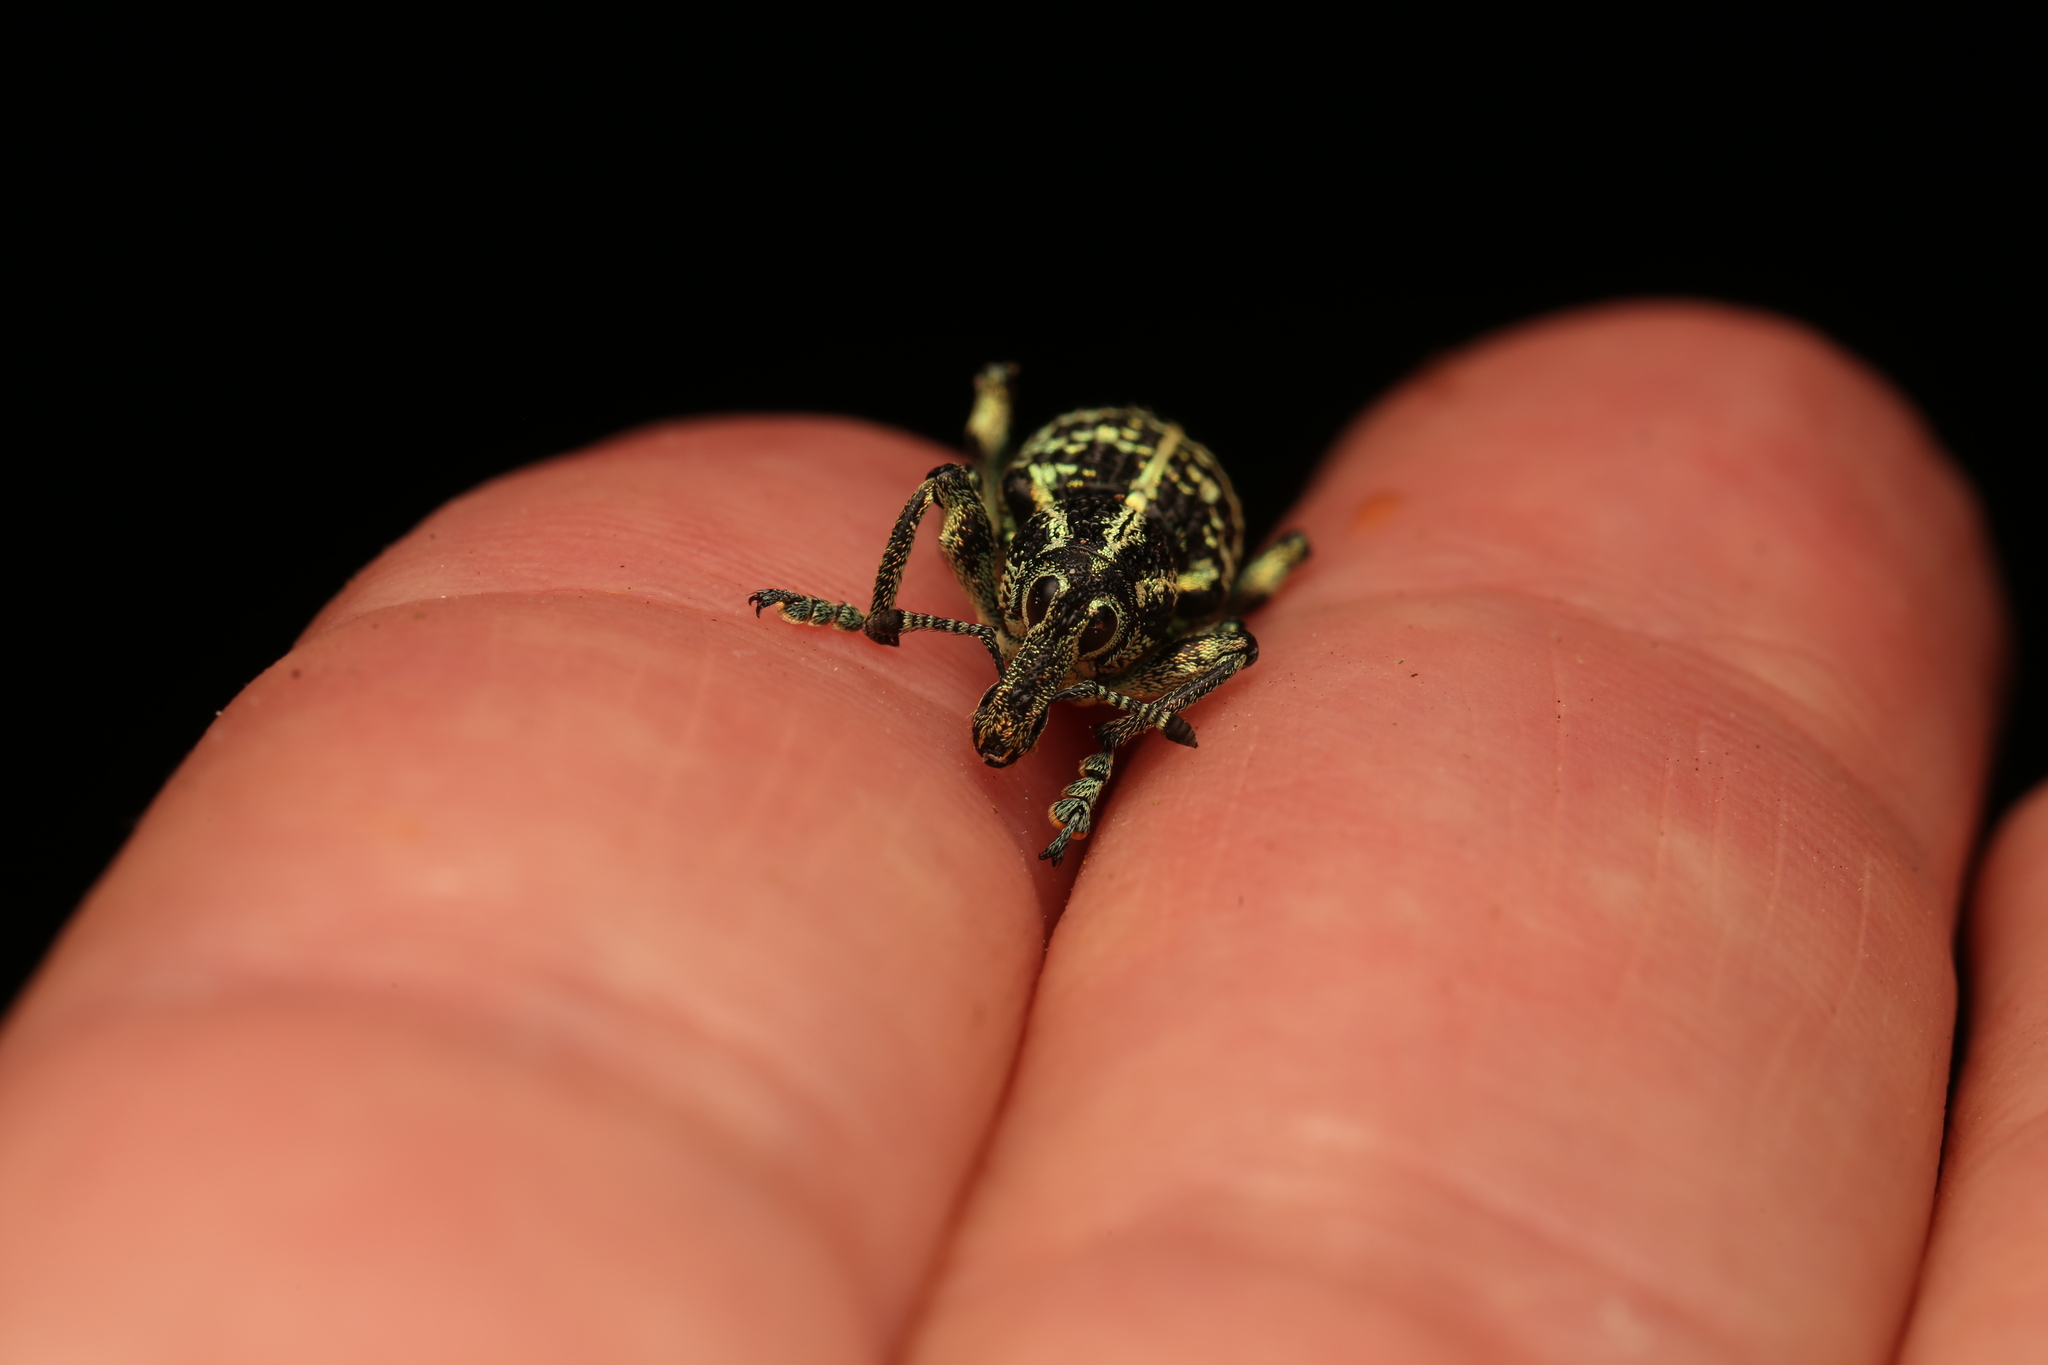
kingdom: Animalia
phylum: Arthropoda
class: Insecta
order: Coleoptera
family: Curculionidae
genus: Chrysolopus
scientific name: Chrysolopus spectabilis
